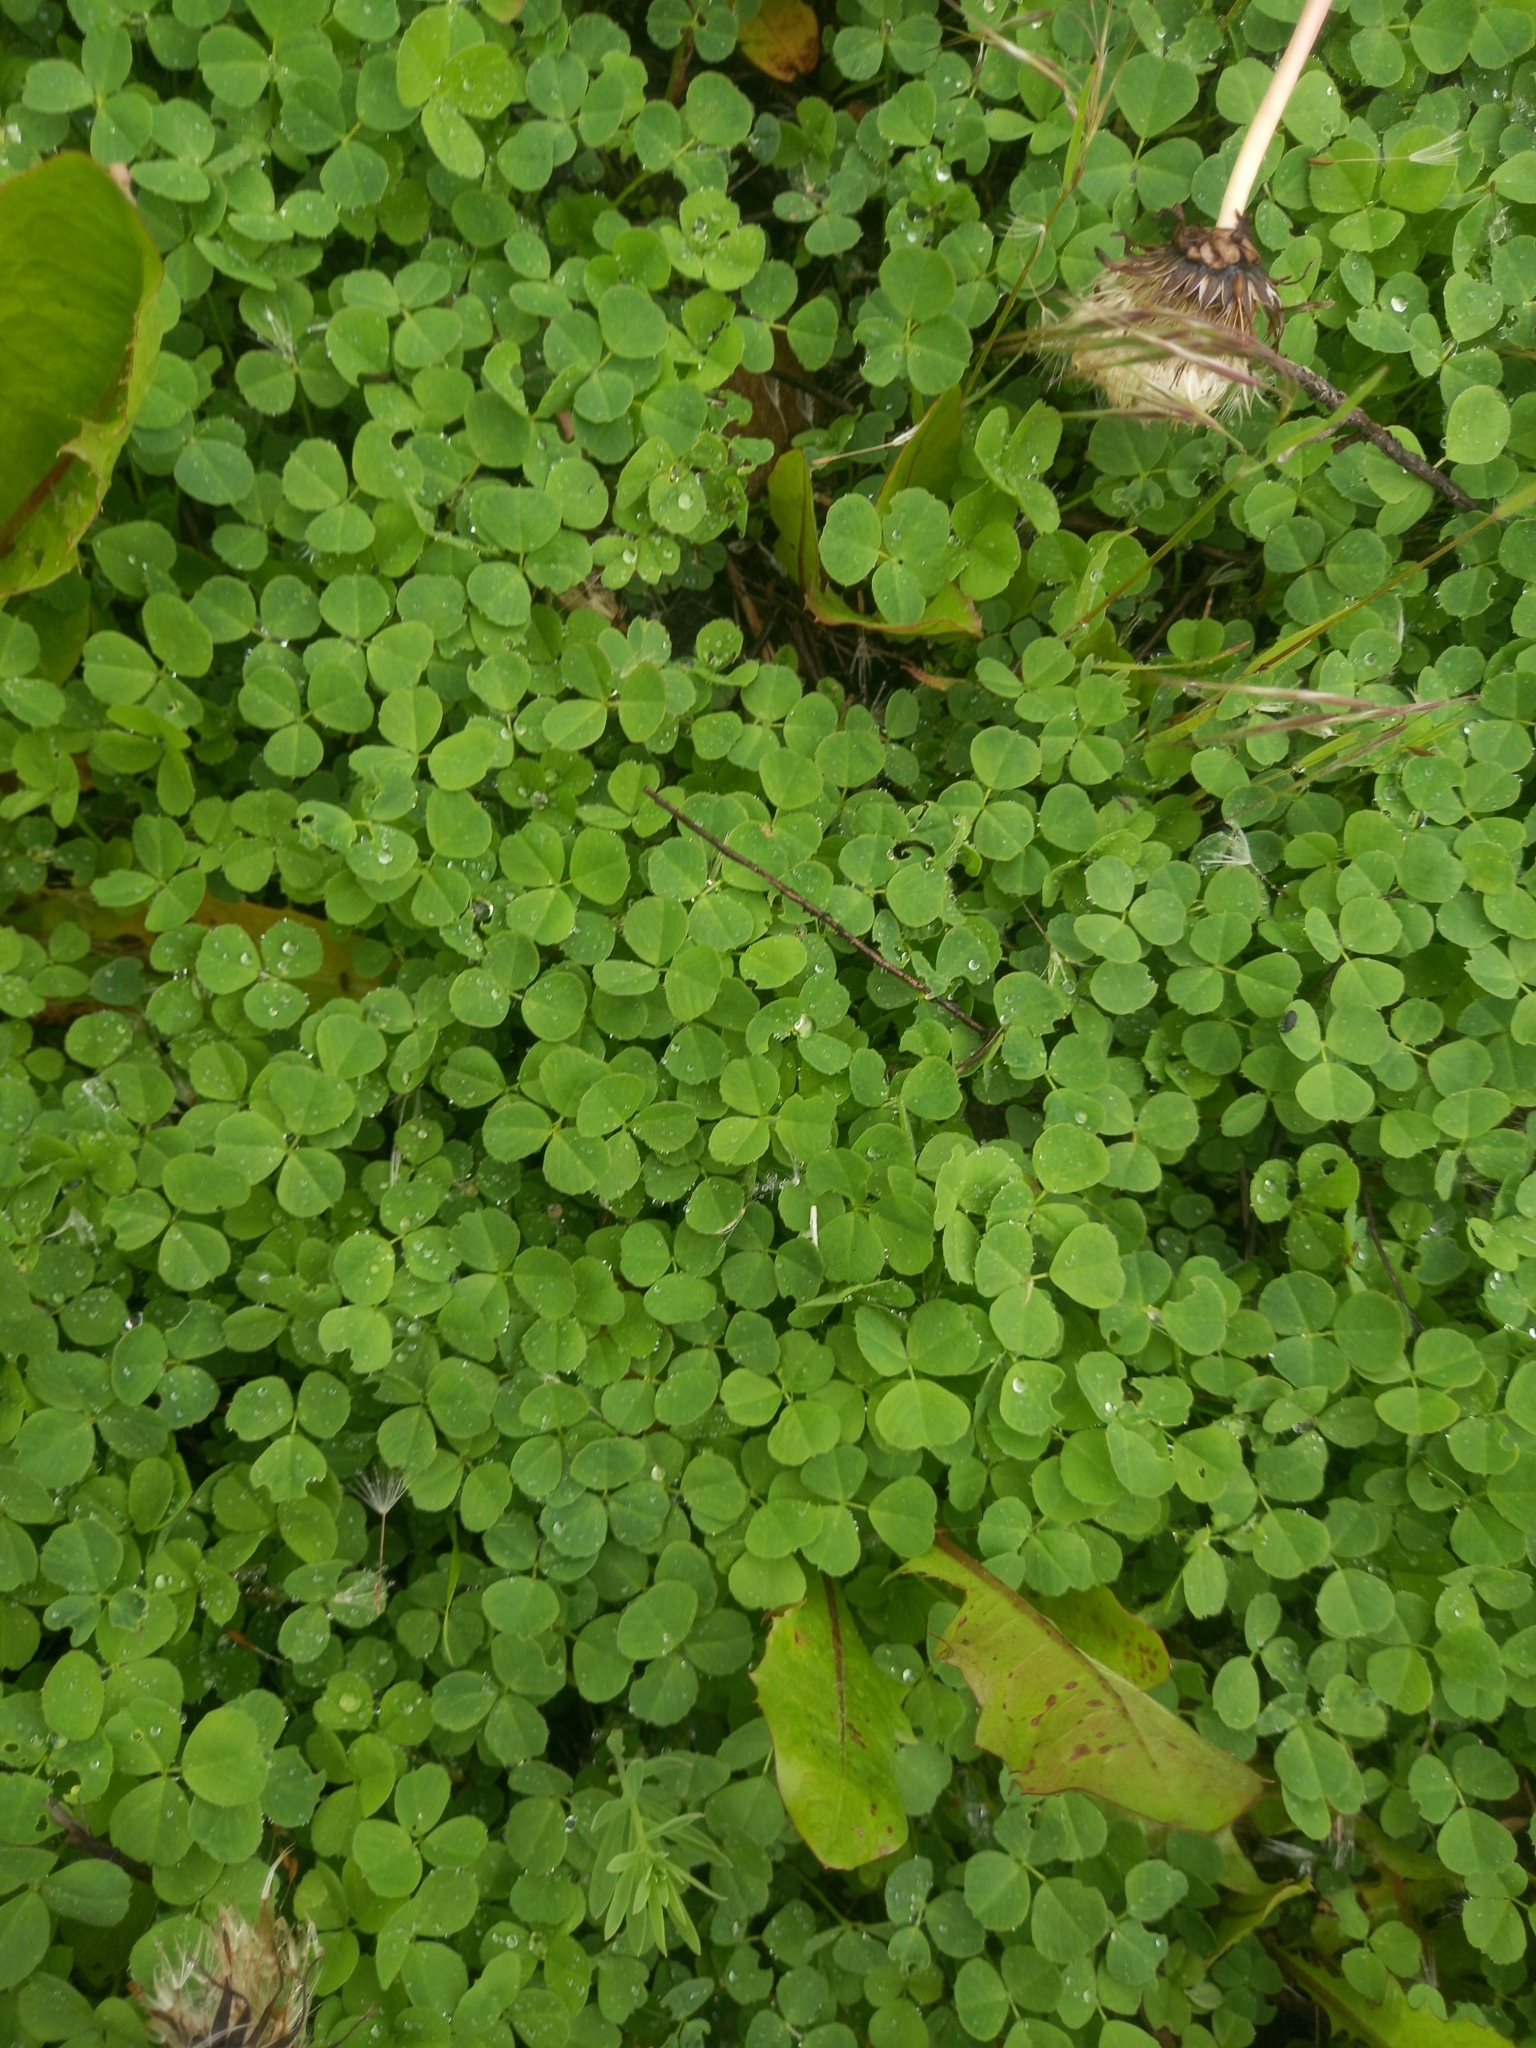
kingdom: Plantae
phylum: Tracheophyta
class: Magnoliopsida
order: Fabales
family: Fabaceae
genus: Trifolium
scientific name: Trifolium repens
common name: White clover
